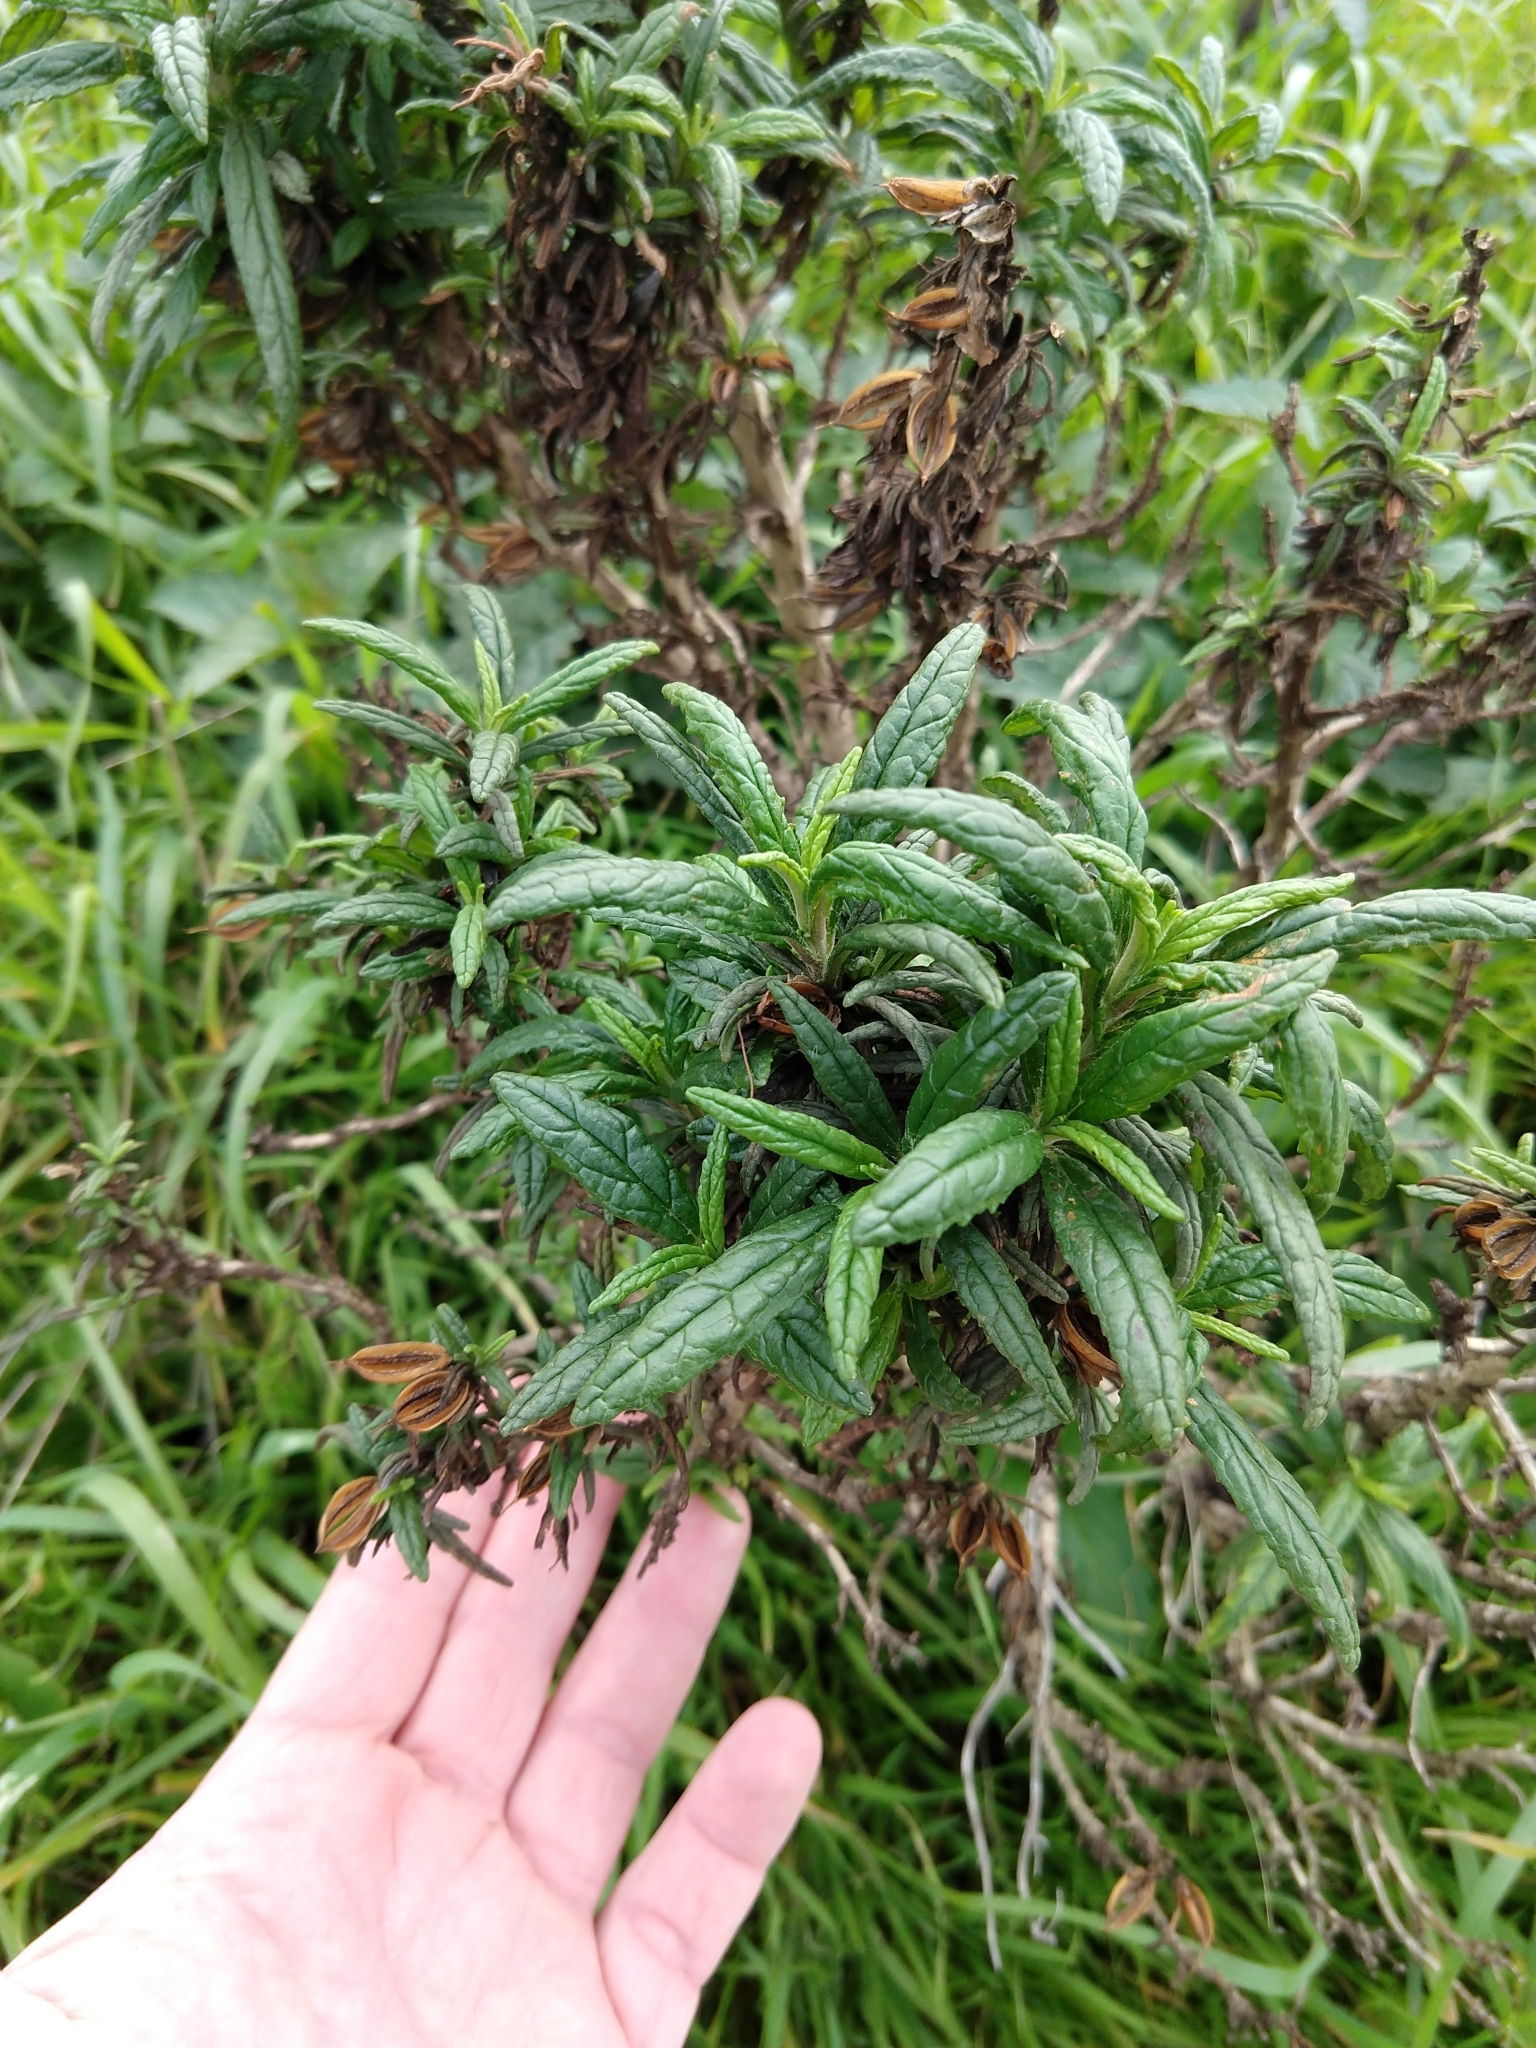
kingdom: Plantae
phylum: Tracheophyta
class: Magnoliopsida
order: Lamiales
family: Phrymaceae
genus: Diplacus
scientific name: Diplacus aurantiacus
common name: Bush monkey-flower
